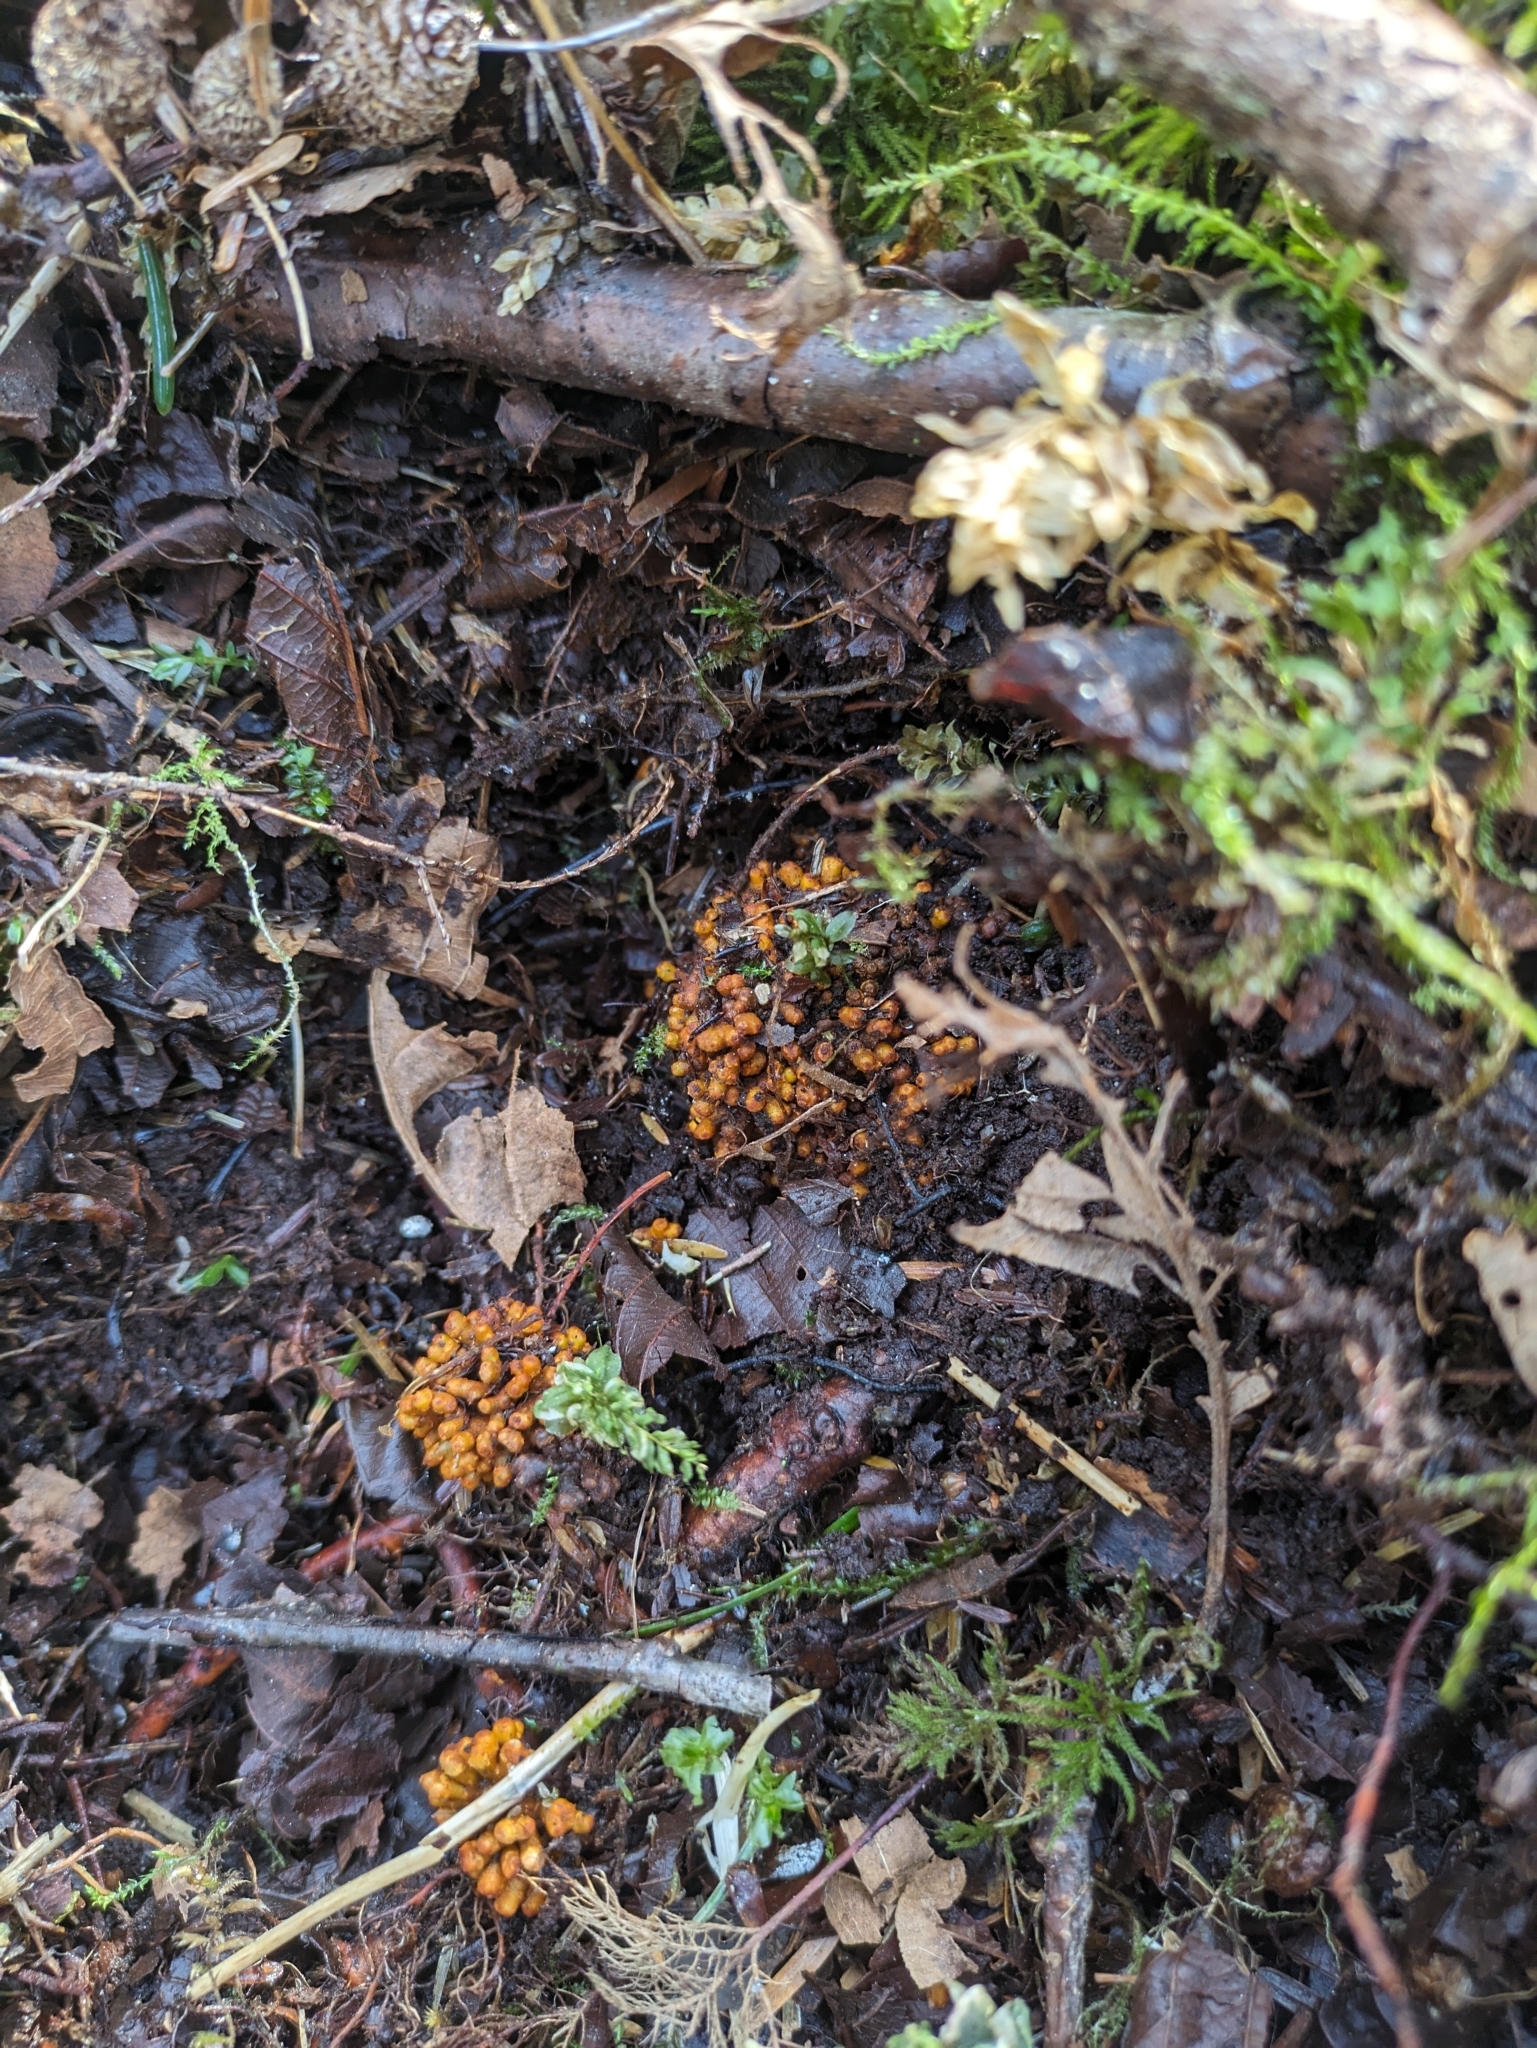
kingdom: Bacteria
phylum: Actinobacteriota
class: Actinomycetia
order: Mycobacteriales
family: Frankiaceae
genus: Frankia
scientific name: Frankia alni
